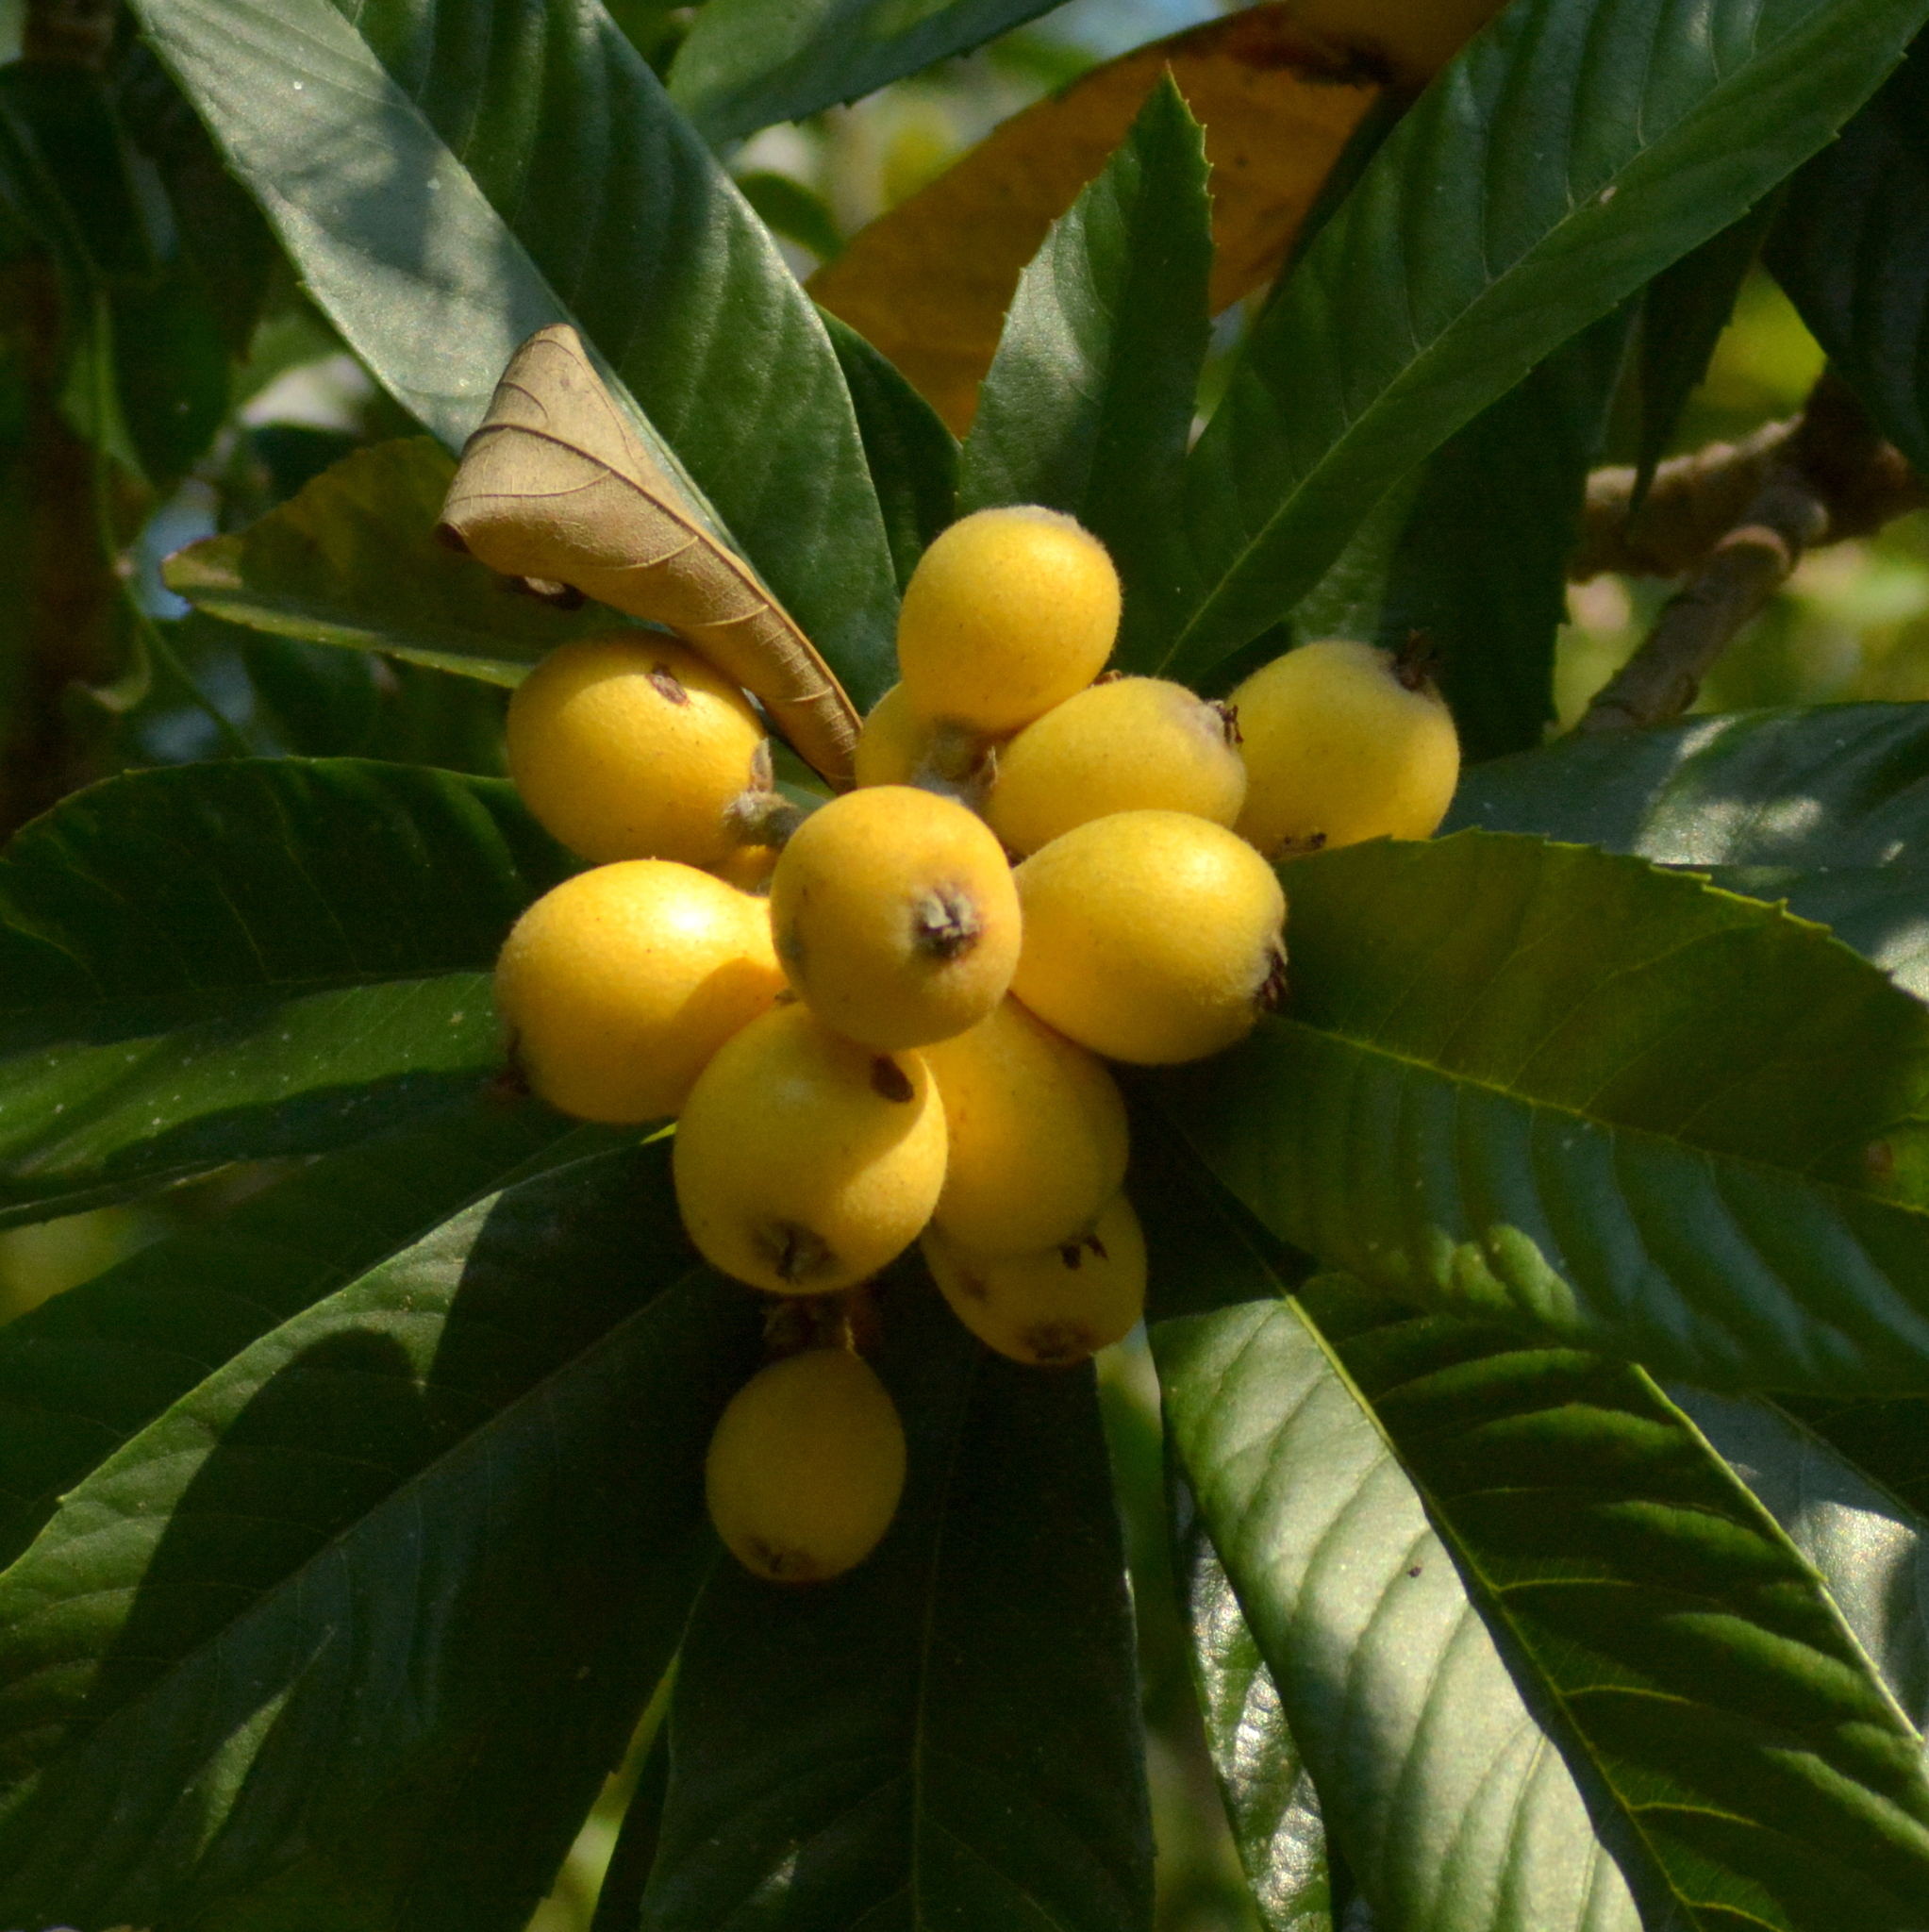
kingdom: Plantae
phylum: Tracheophyta
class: Magnoliopsida
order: Rosales
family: Rosaceae
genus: Rhaphiolepis
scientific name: Rhaphiolepis bibas
